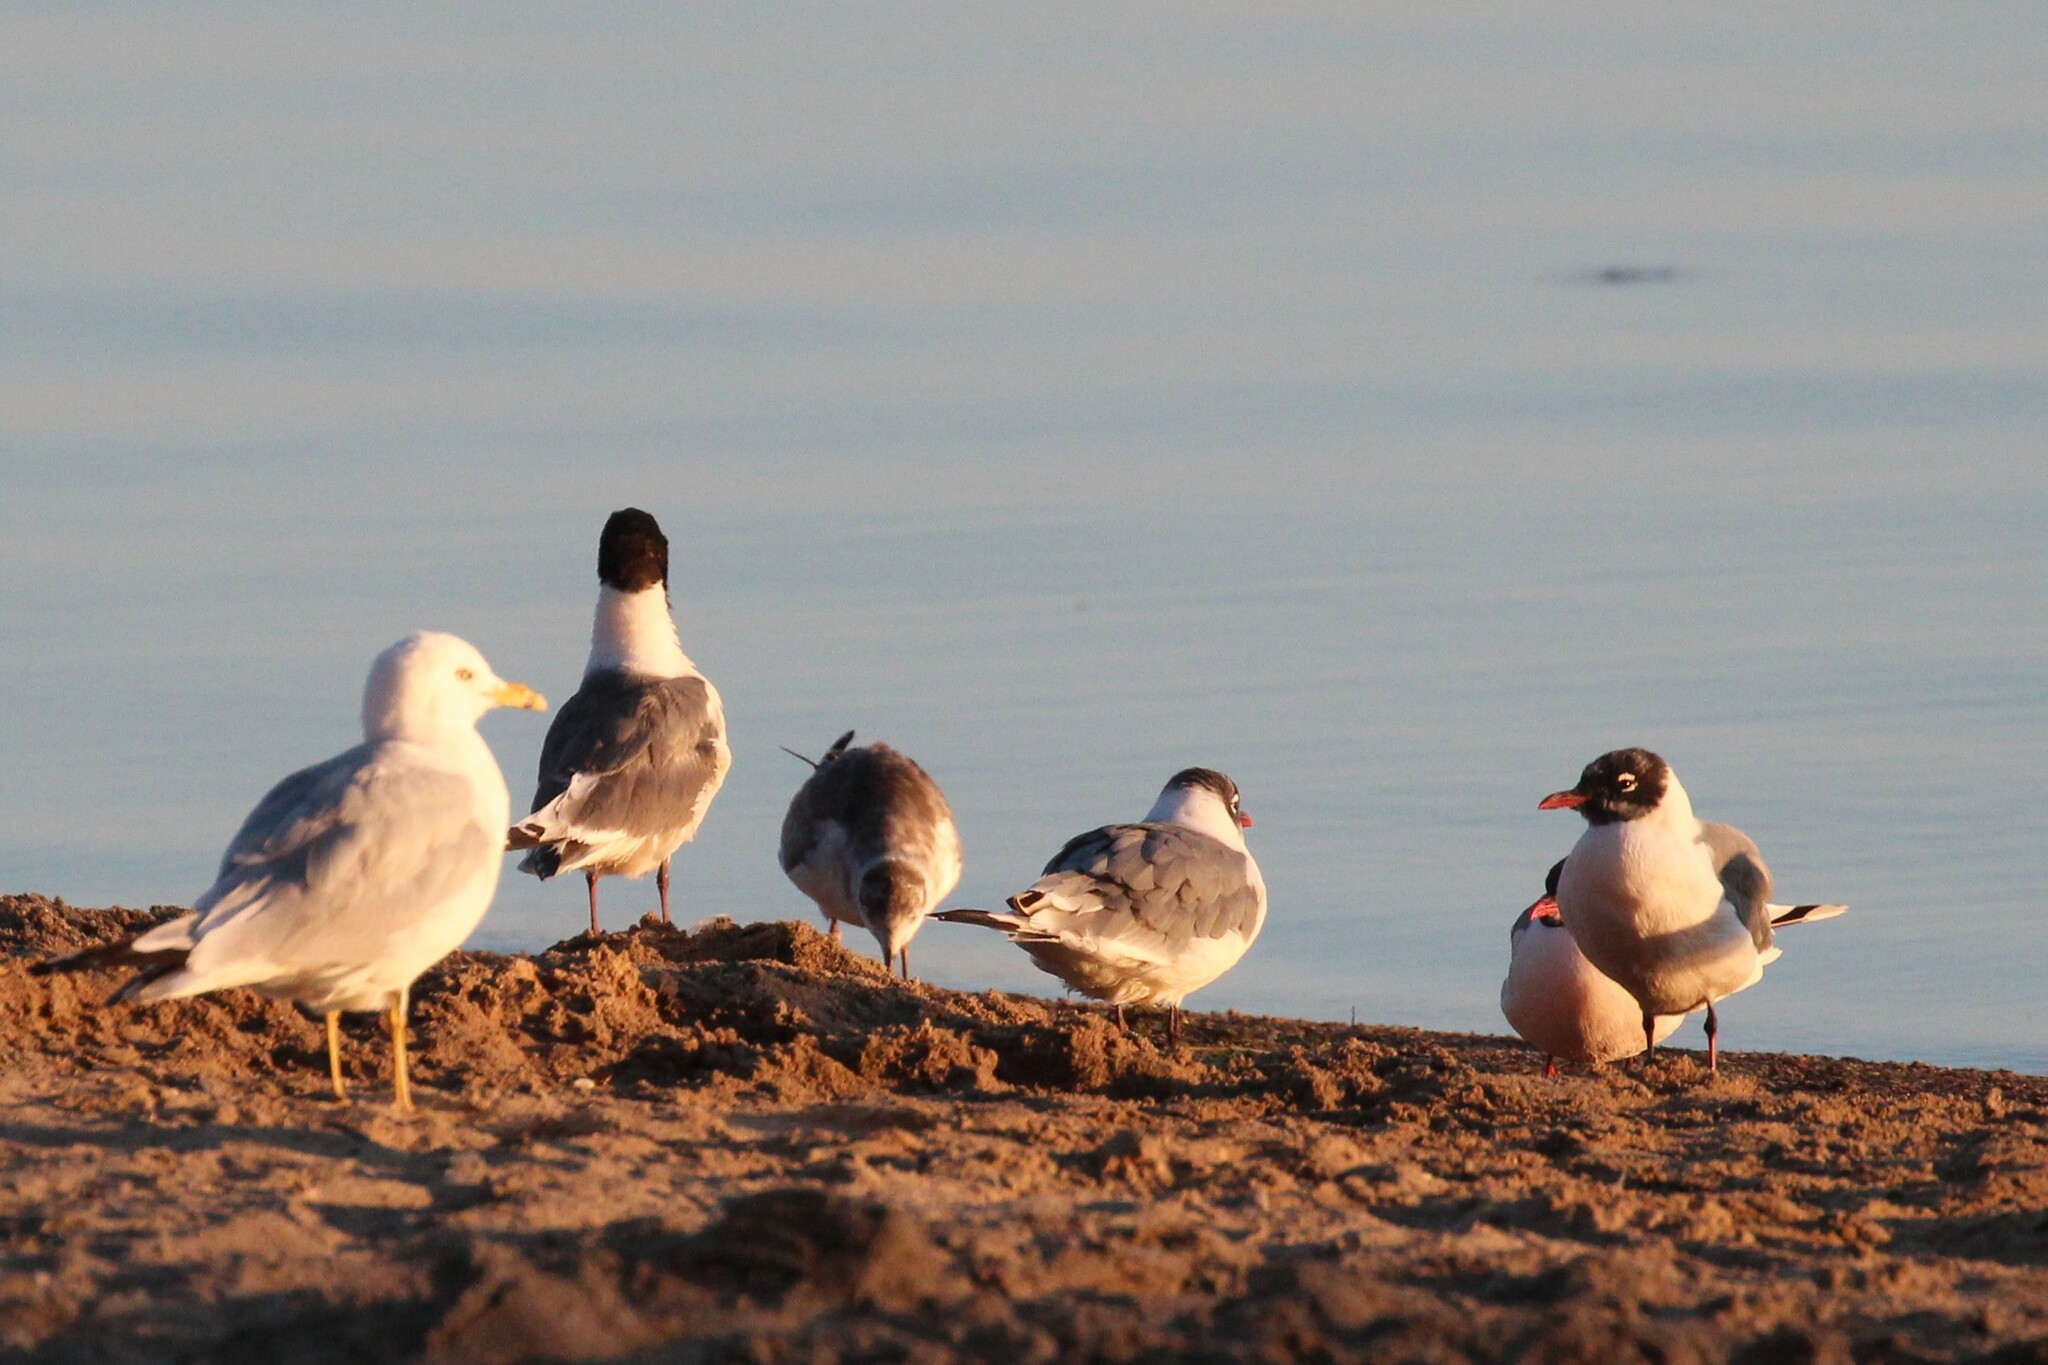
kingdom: Animalia
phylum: Chordata
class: Aves
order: Charadriiformes
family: Laridae
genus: Leucophaeus
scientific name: Leucophaeus pipixcan
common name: Franklin's gull
